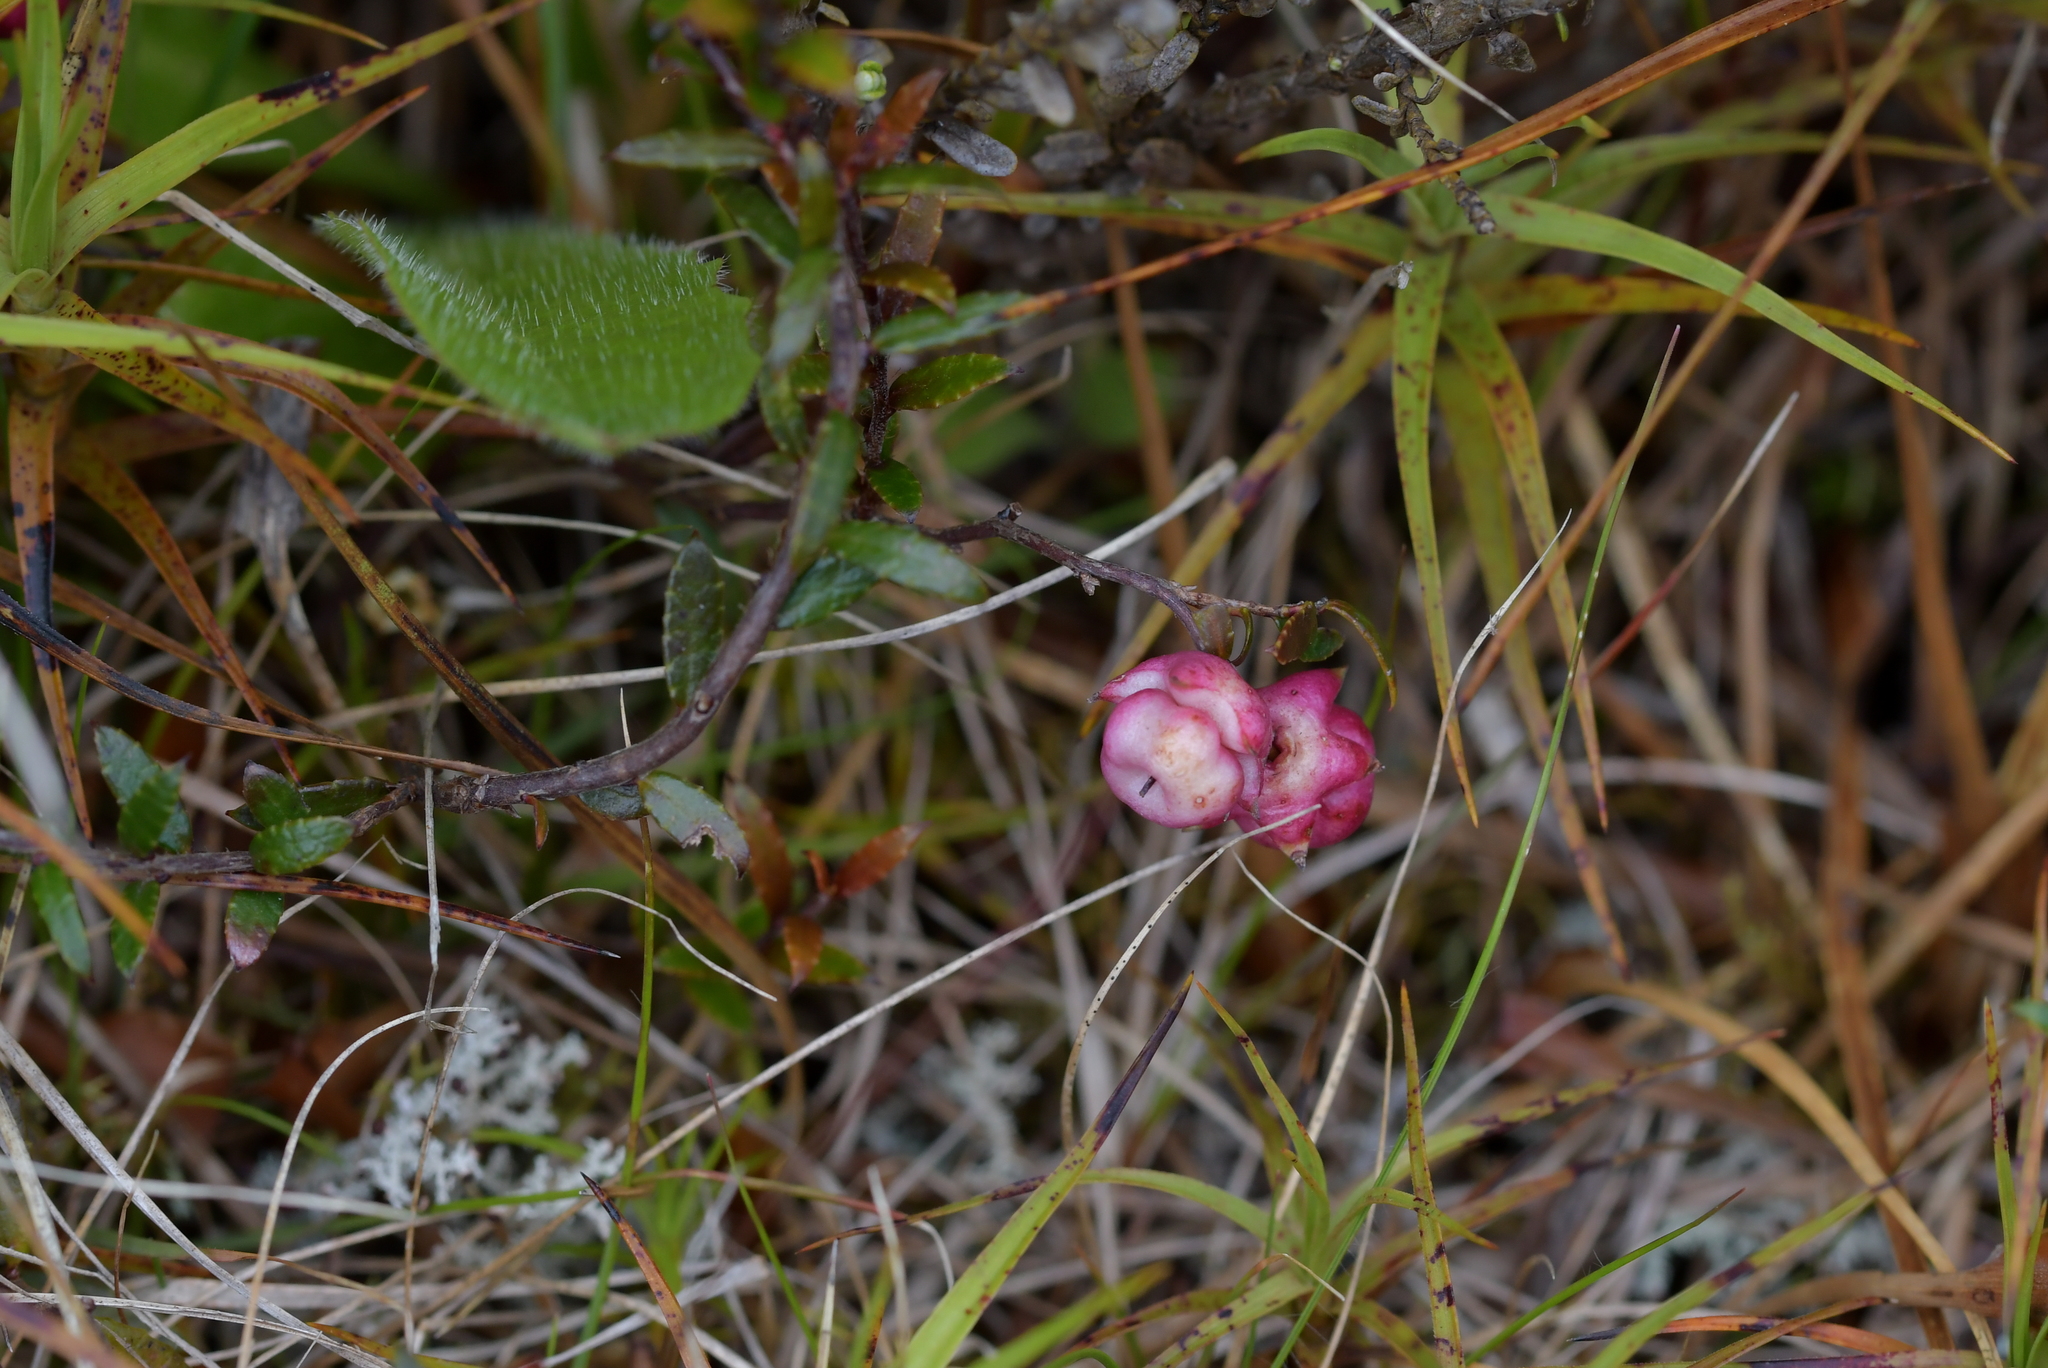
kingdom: Plantae
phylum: Tracheophyta
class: Magnoliopsida
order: Ericales
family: Ericaceae
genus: Gaultheria
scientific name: Gaultheria macrostigma
